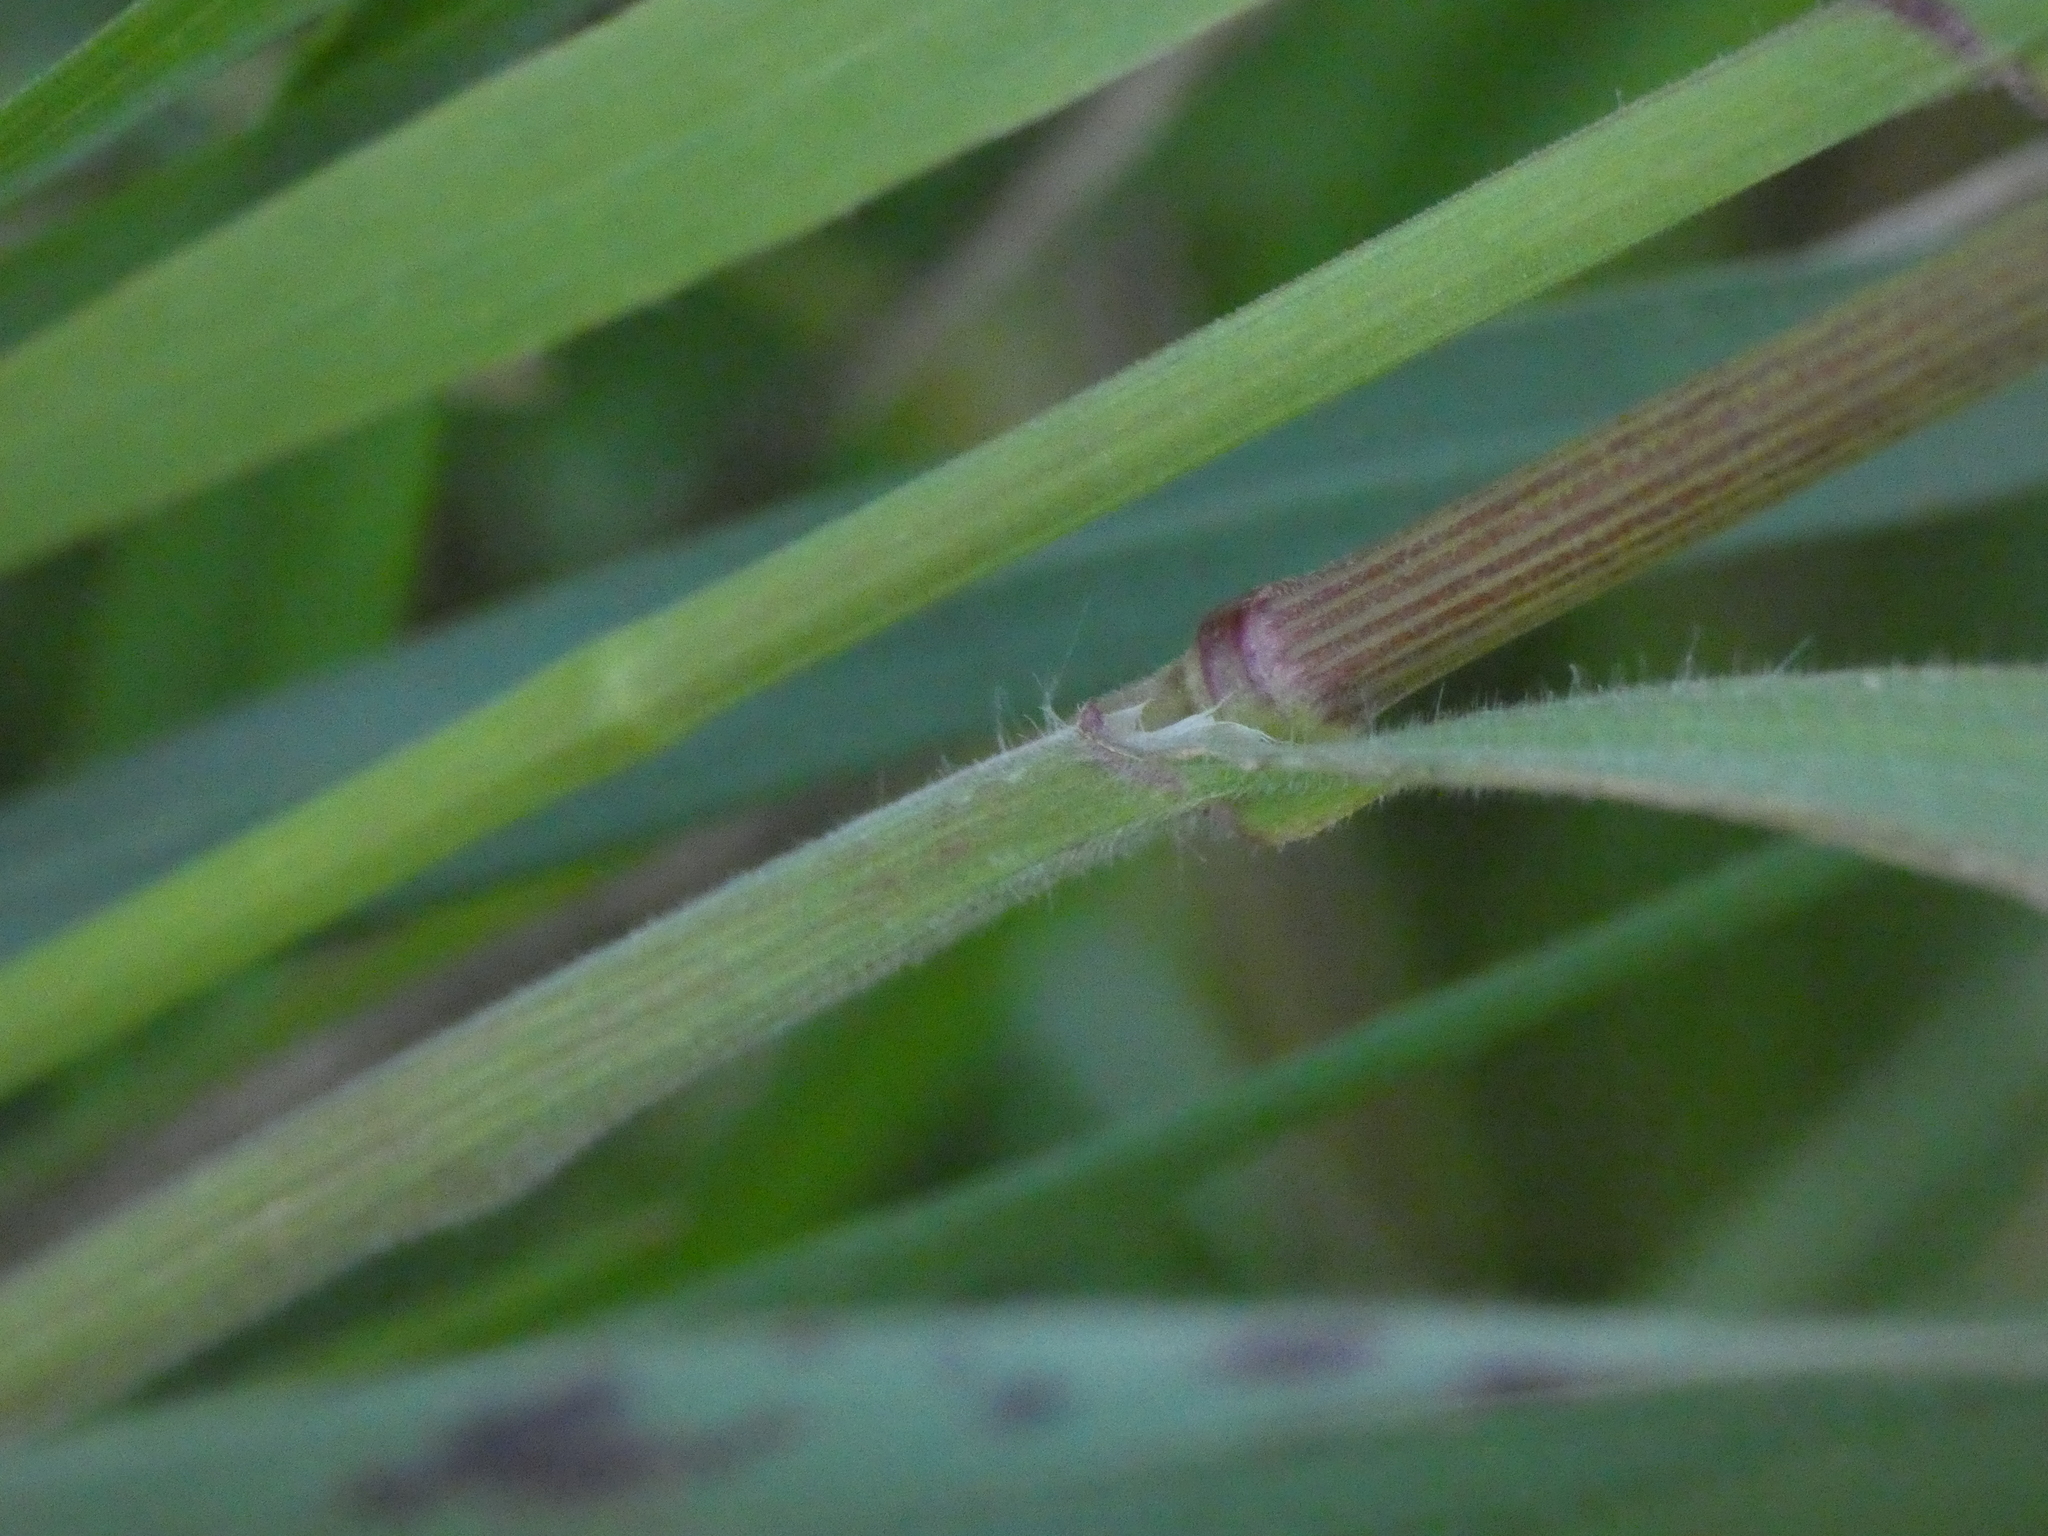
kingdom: Plantae
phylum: Tracheophyta
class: Liliopsida
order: Poales
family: Poaceae
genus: Bromus
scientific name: Bromus sterilis
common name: Poverty brome
